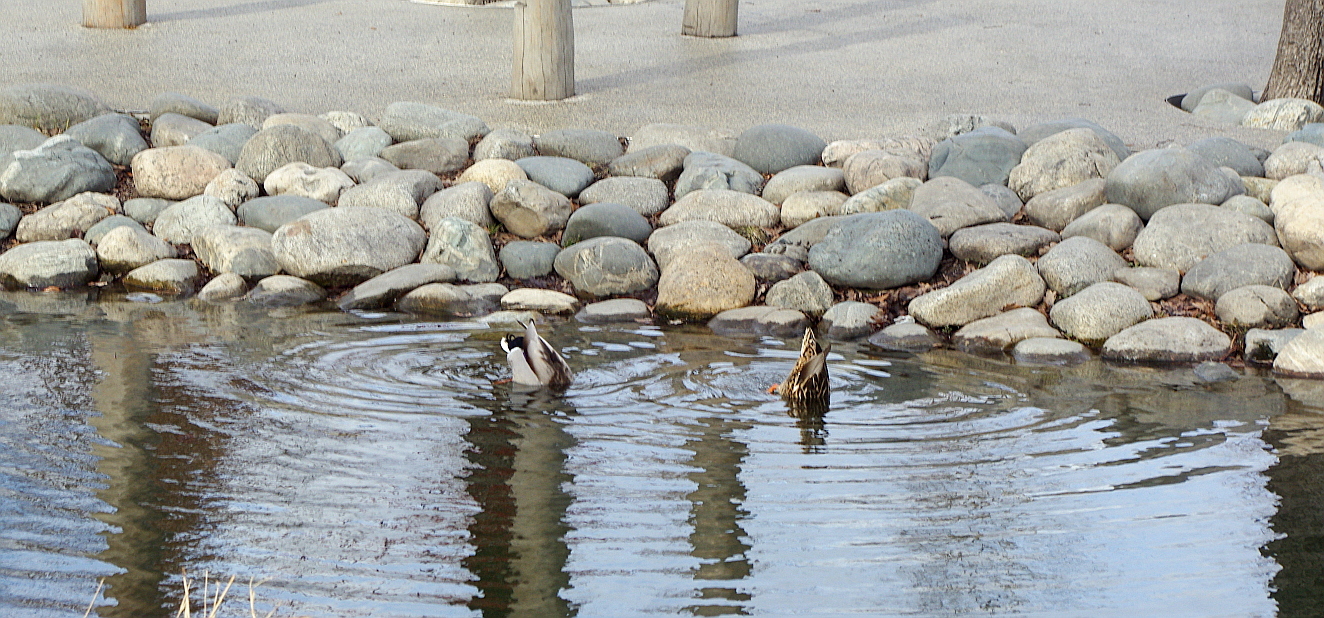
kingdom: Animalia
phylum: Chordata
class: Aves
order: Anseriformes
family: Anatidae
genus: Anas
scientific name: Anas platyrhynchos
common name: Mallard
